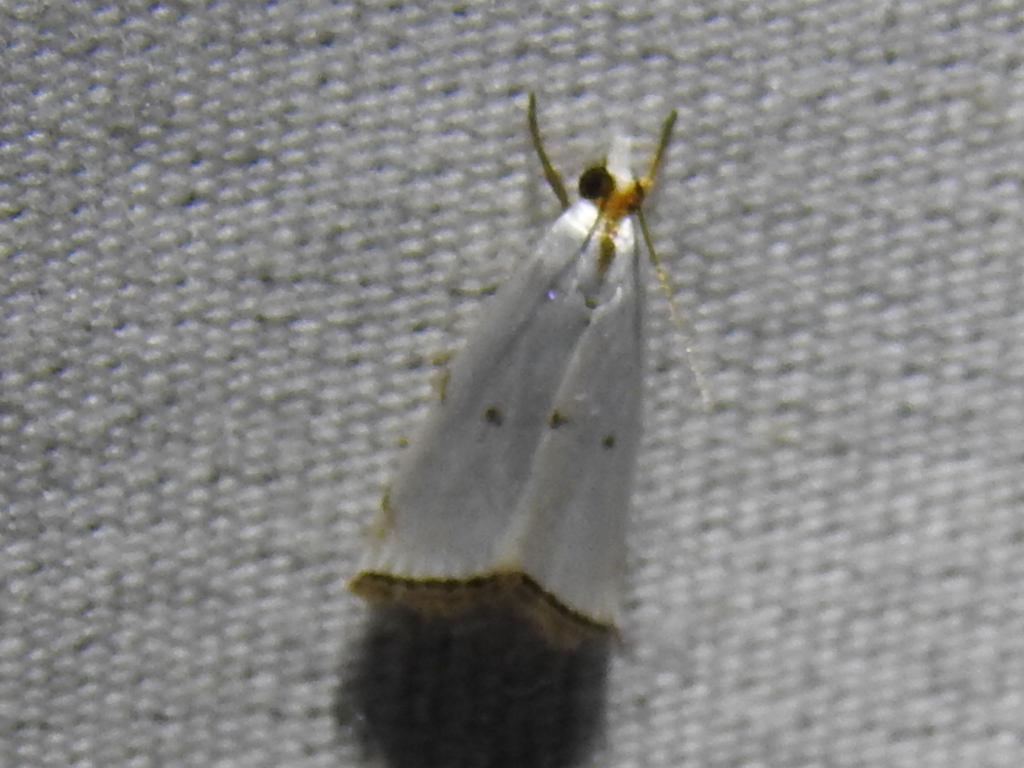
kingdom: Animalia
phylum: Arthropoda
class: Insecta
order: Lepidoptera
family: Crambidae
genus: Argyria
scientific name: Argyria pusillalis
